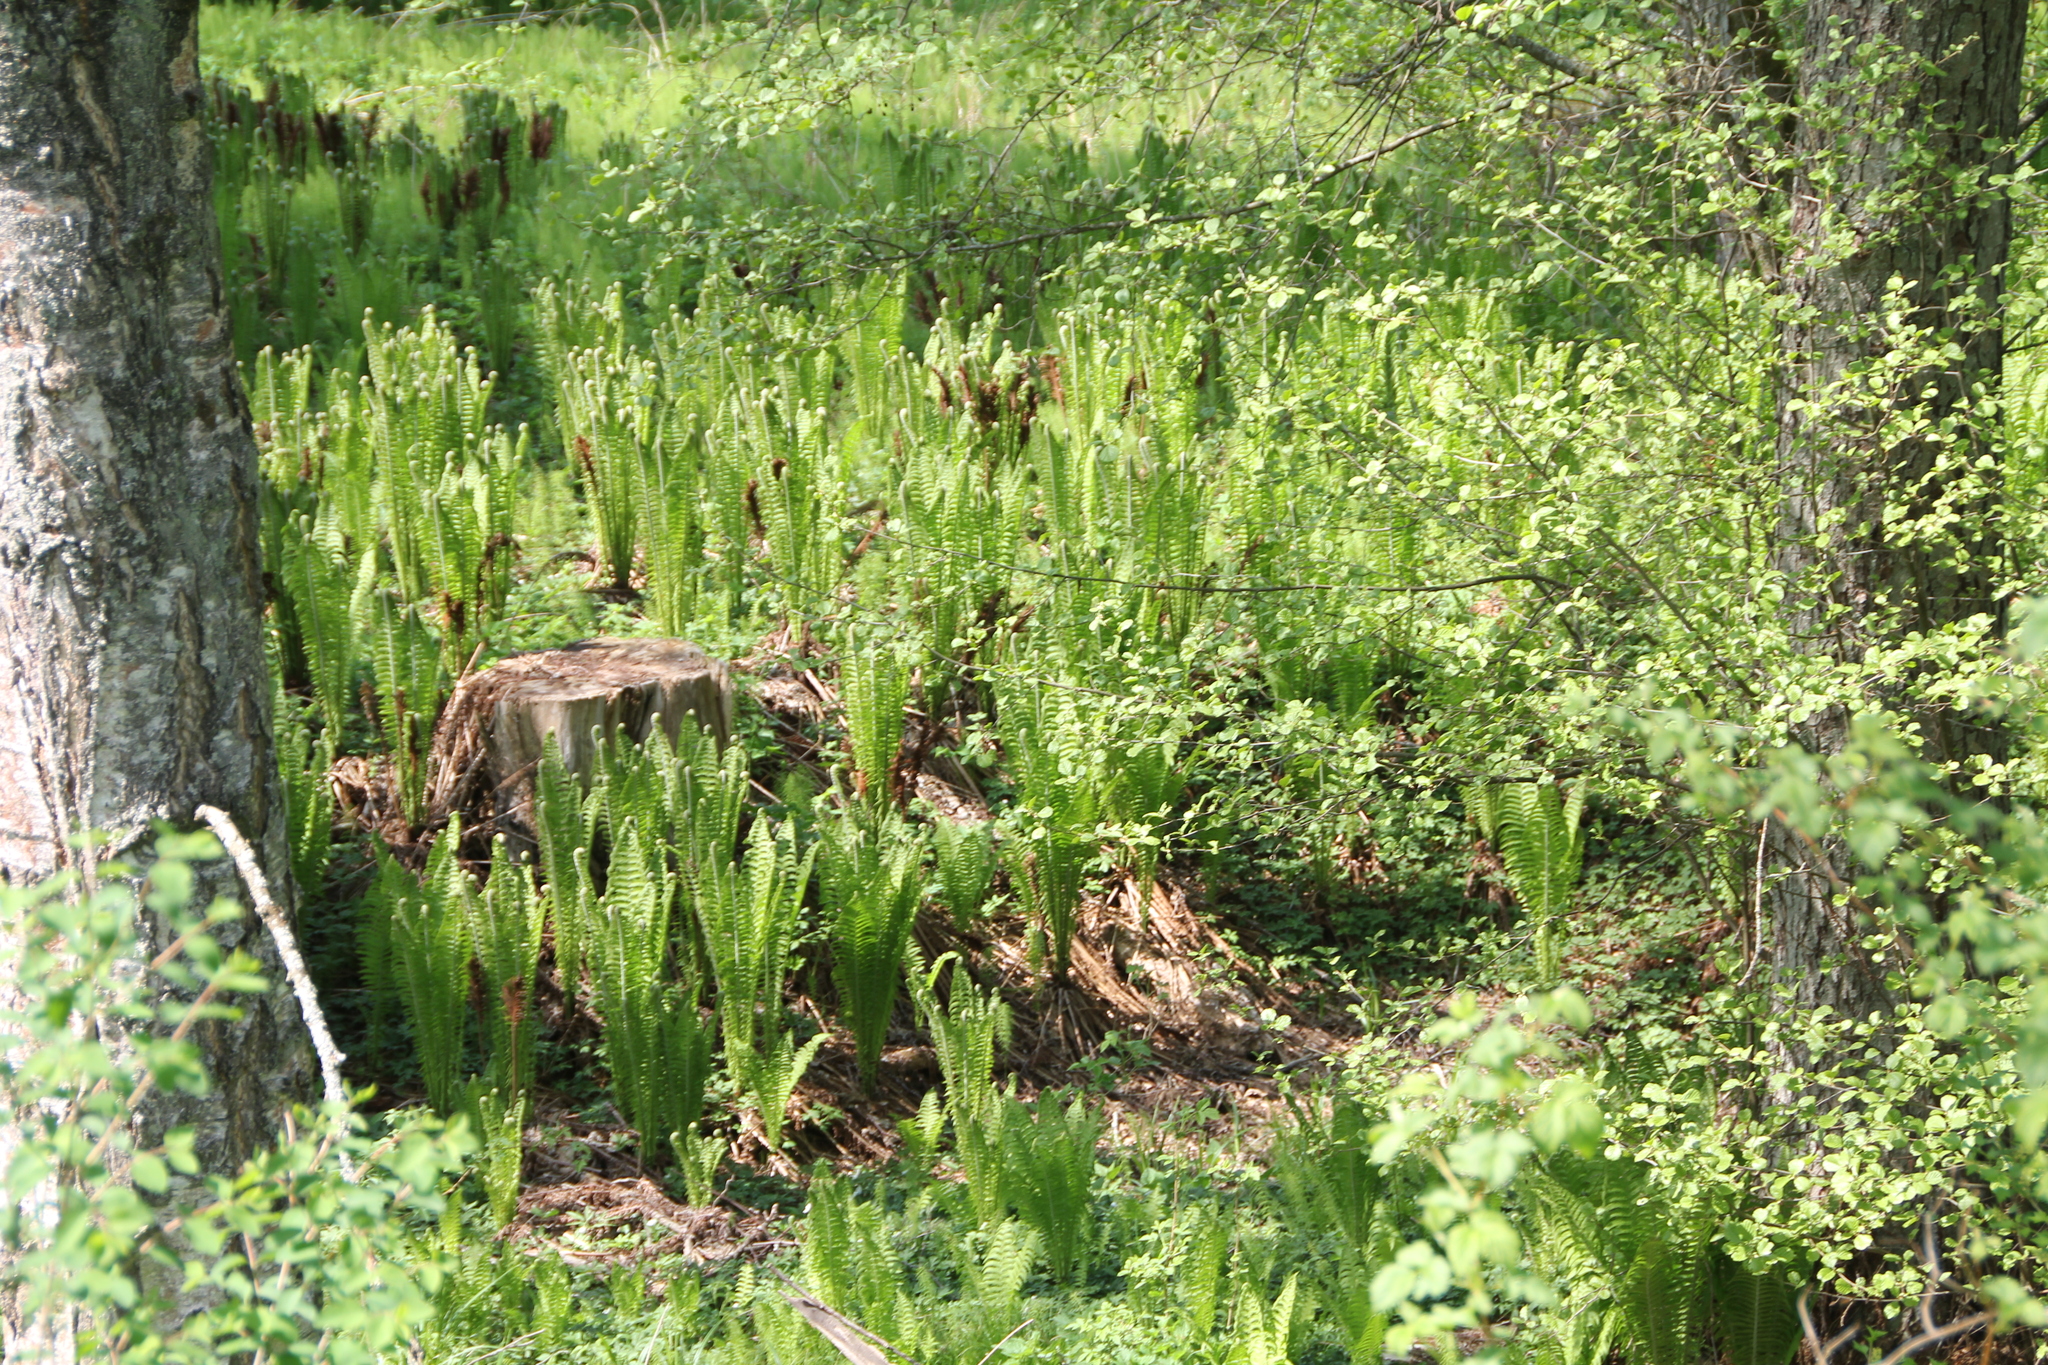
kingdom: Plantae
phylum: Tracheophyta
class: Polypodiopsida
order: Polypodiales
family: Onocleaceae
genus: Matteuccia
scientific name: Matteuccia struthiopteris
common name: Ostrich fern
